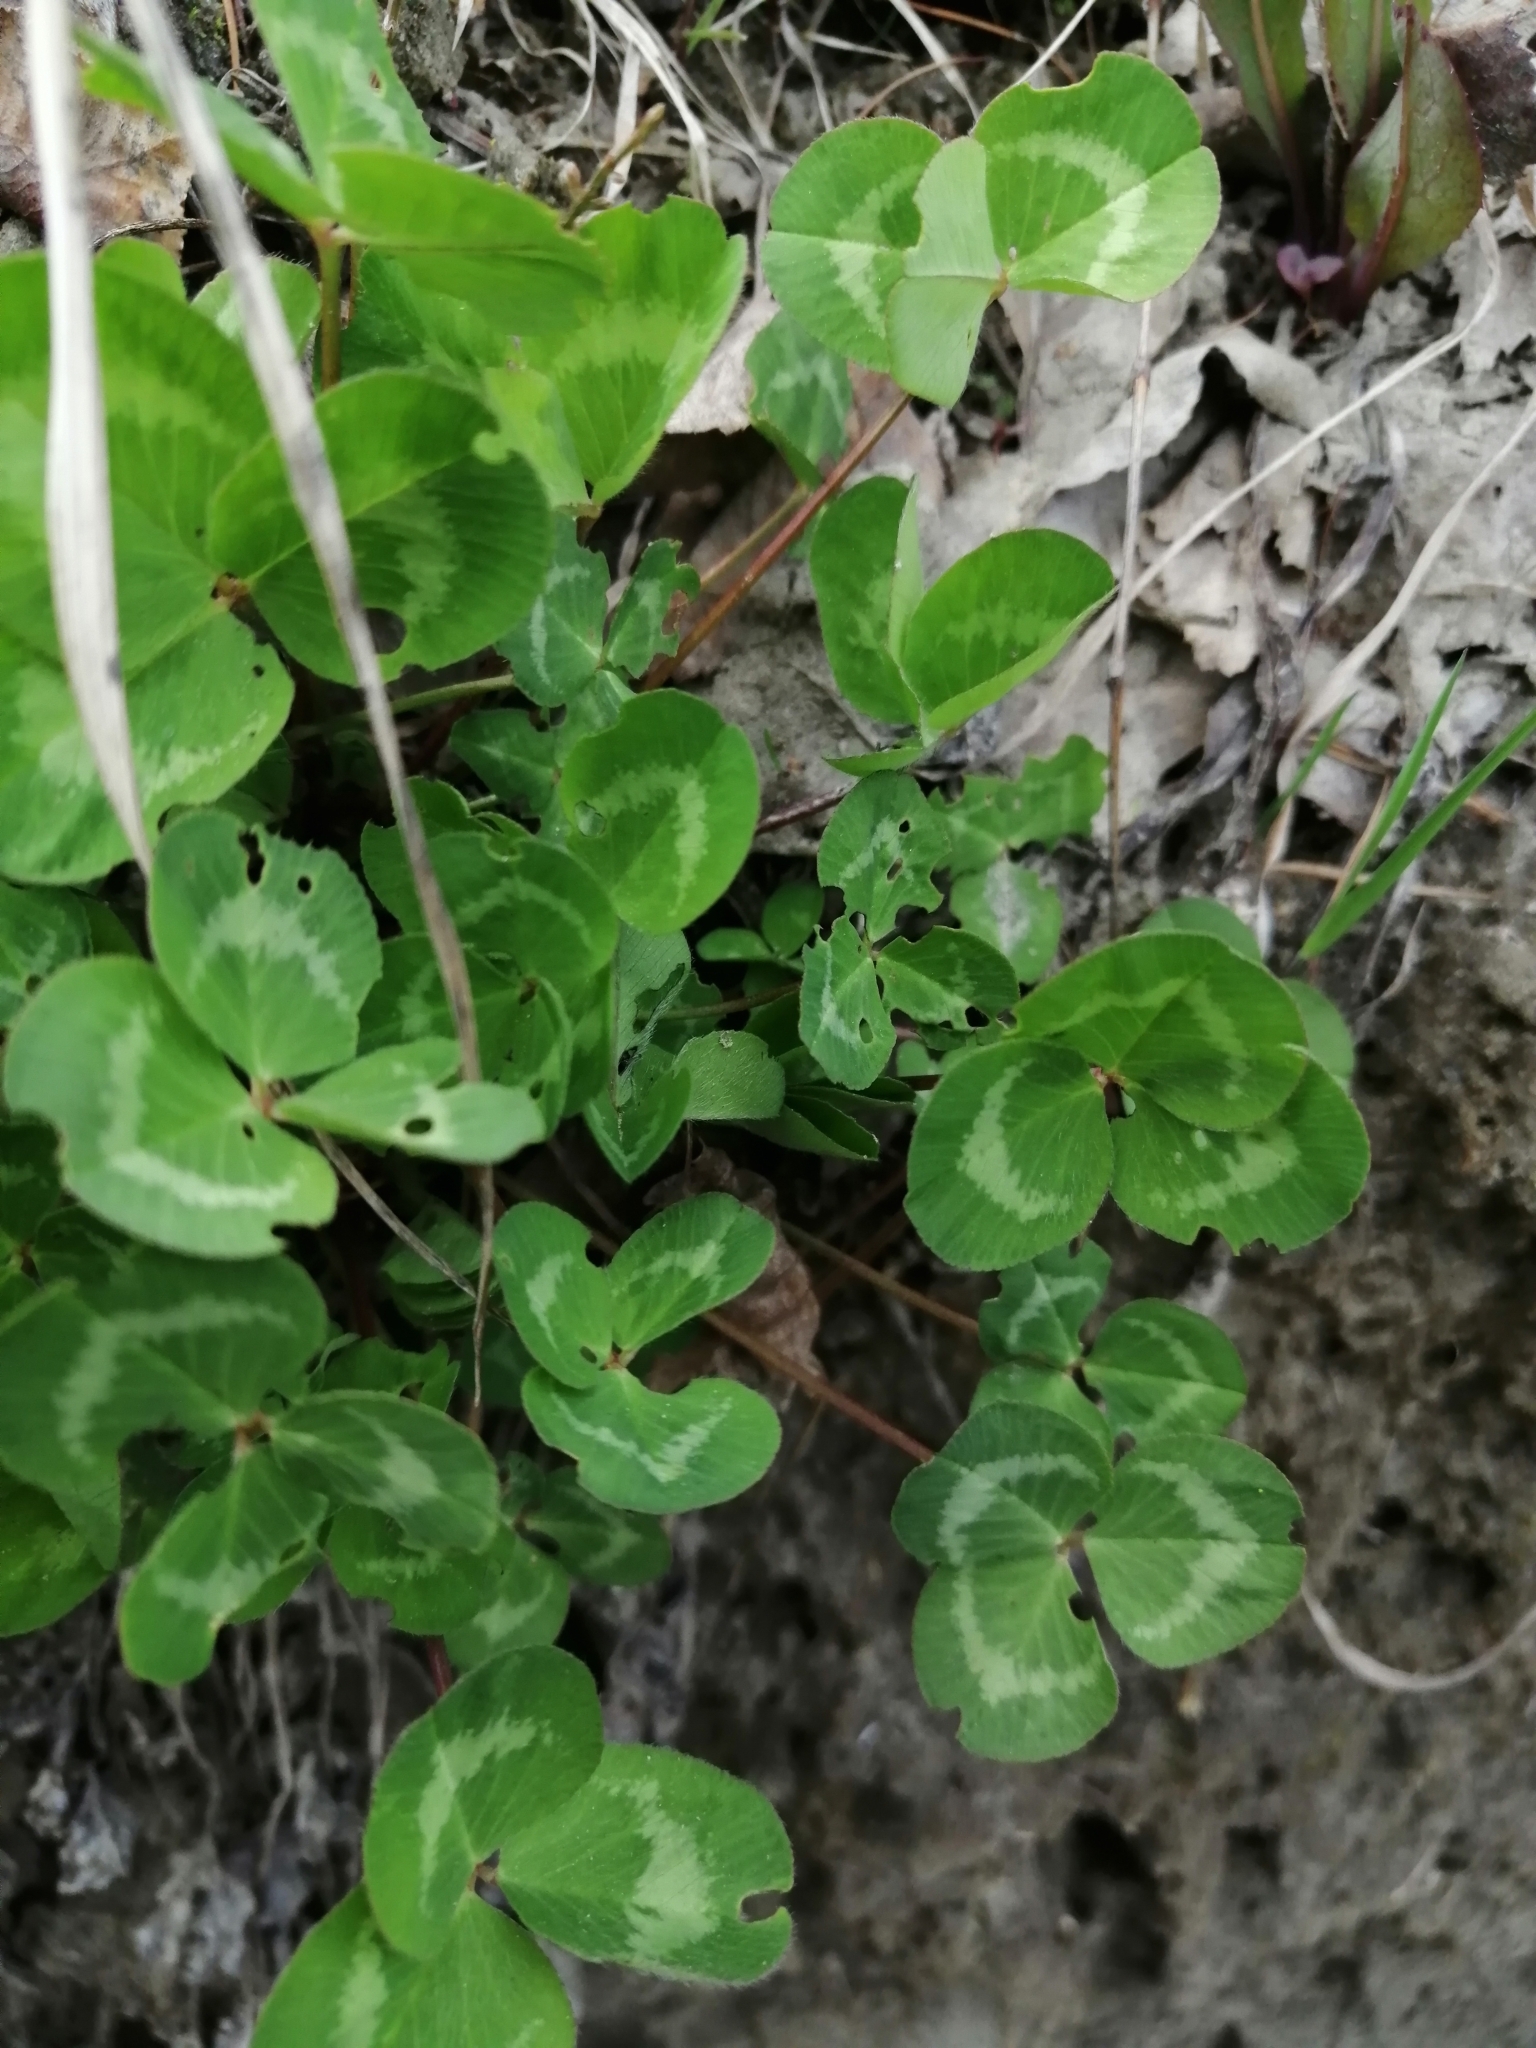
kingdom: Plantae
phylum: Tracheophyta
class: Magnoliopsida
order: Fabales
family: Fabaceae
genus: Trifolium
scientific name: Trifolium pratense
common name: Red clover
